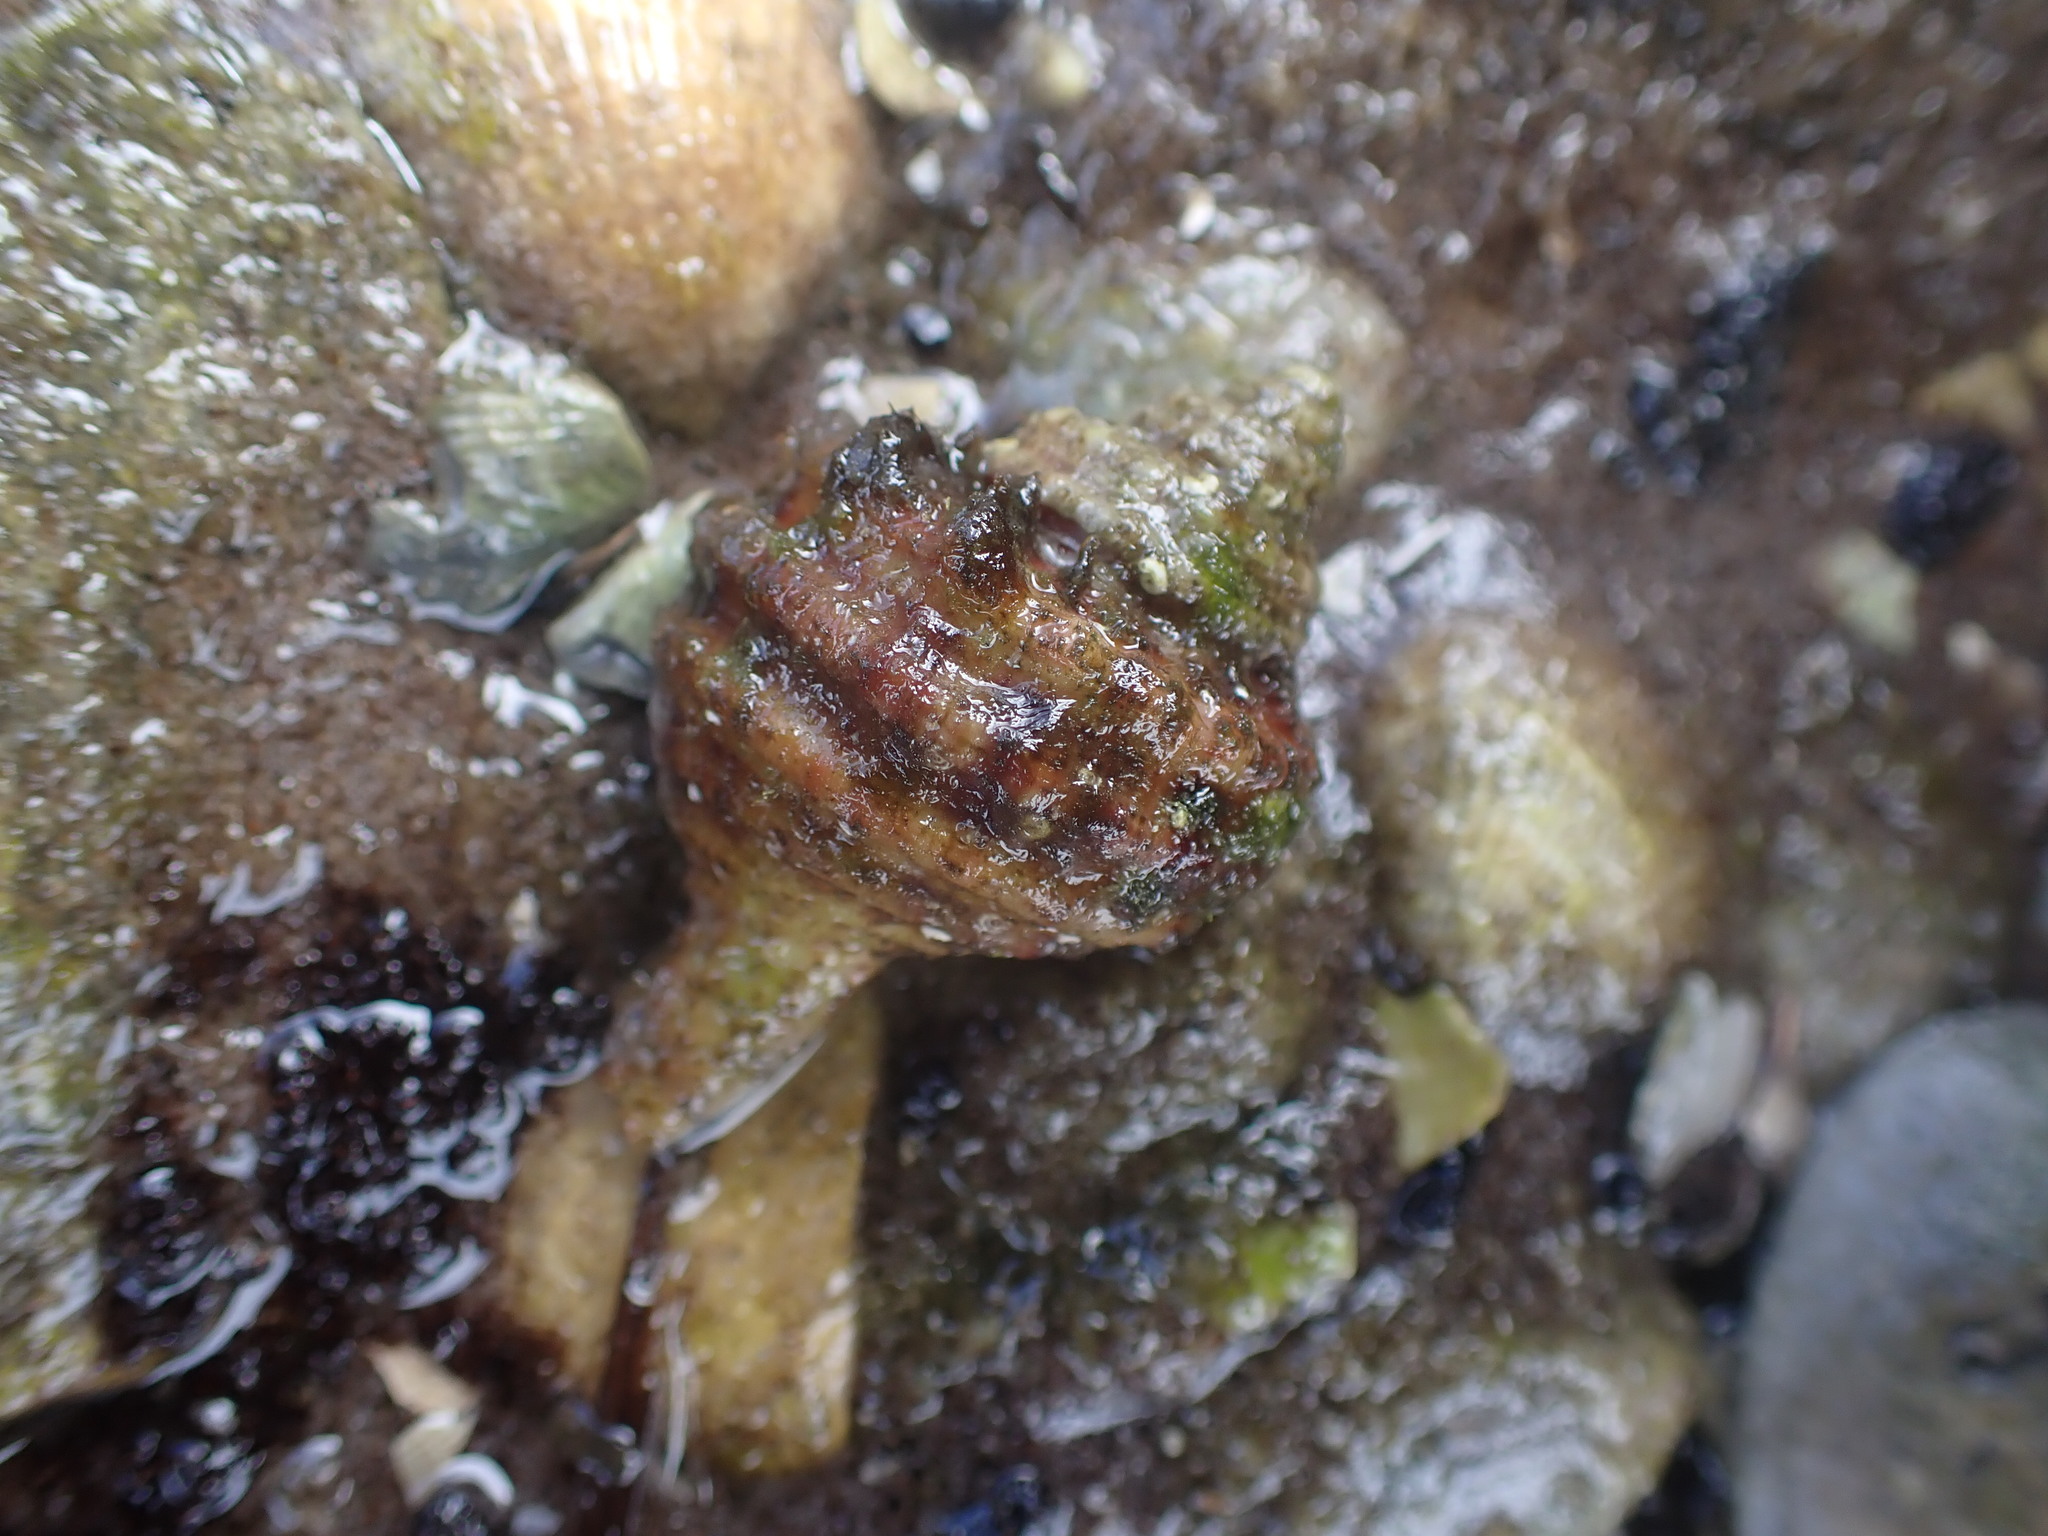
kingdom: Animalia
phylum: Mollusca
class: Gastropoda
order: Littorinimorpha
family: Cymatiidae
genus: Monoplex
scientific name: Monoplex parthenopeus
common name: Giant triton
